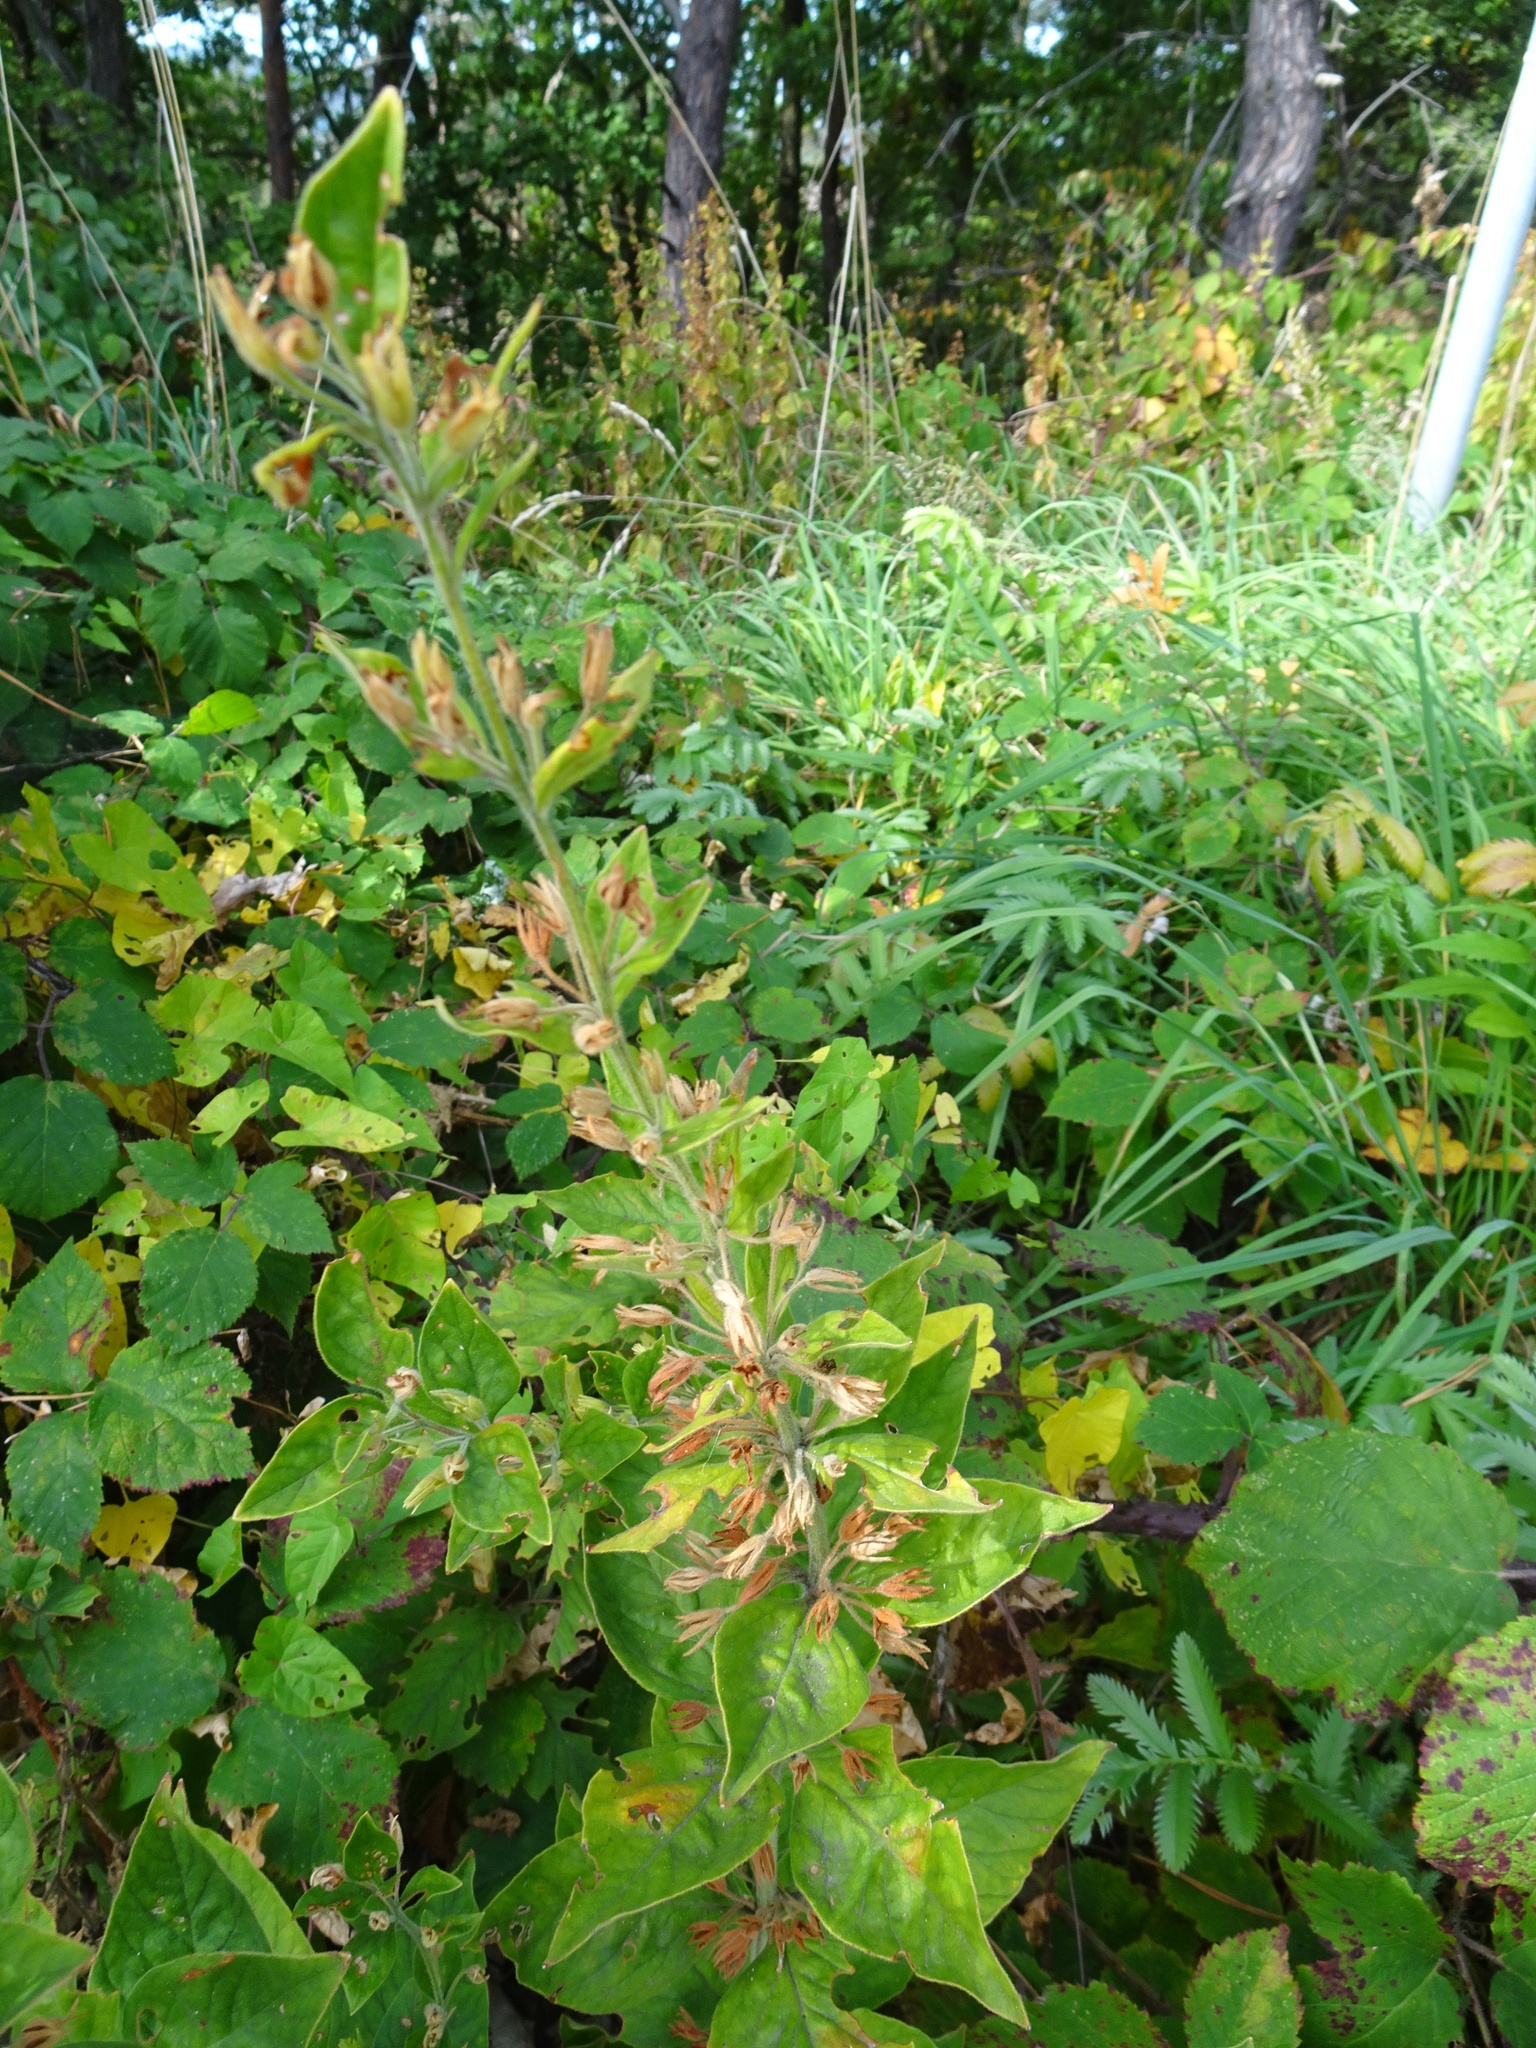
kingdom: Plantae
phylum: Tracheophyta
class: Magnoliopsida
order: Ericales
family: Primulaceae
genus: Lysimachia
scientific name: Lysimachia punctata
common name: Dotted loosestrife
